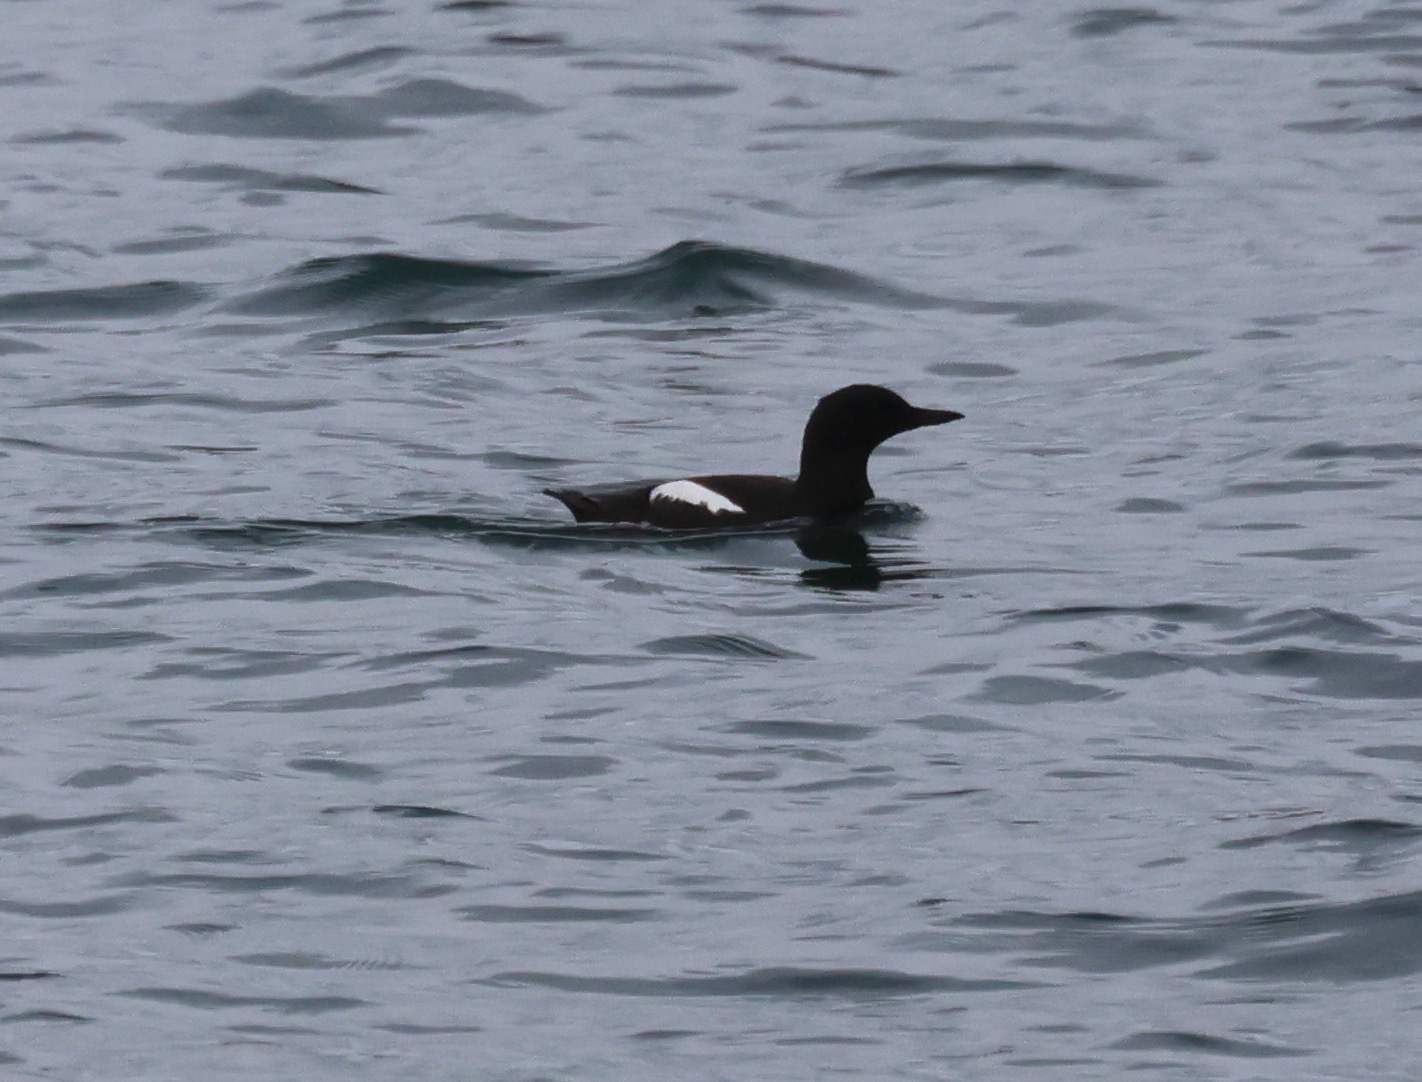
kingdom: Animalia
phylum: Chordata
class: Aves
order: Charadriiformes
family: Alcidae
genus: Cepphus
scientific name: Cepphus grylle
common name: Black guillemot
